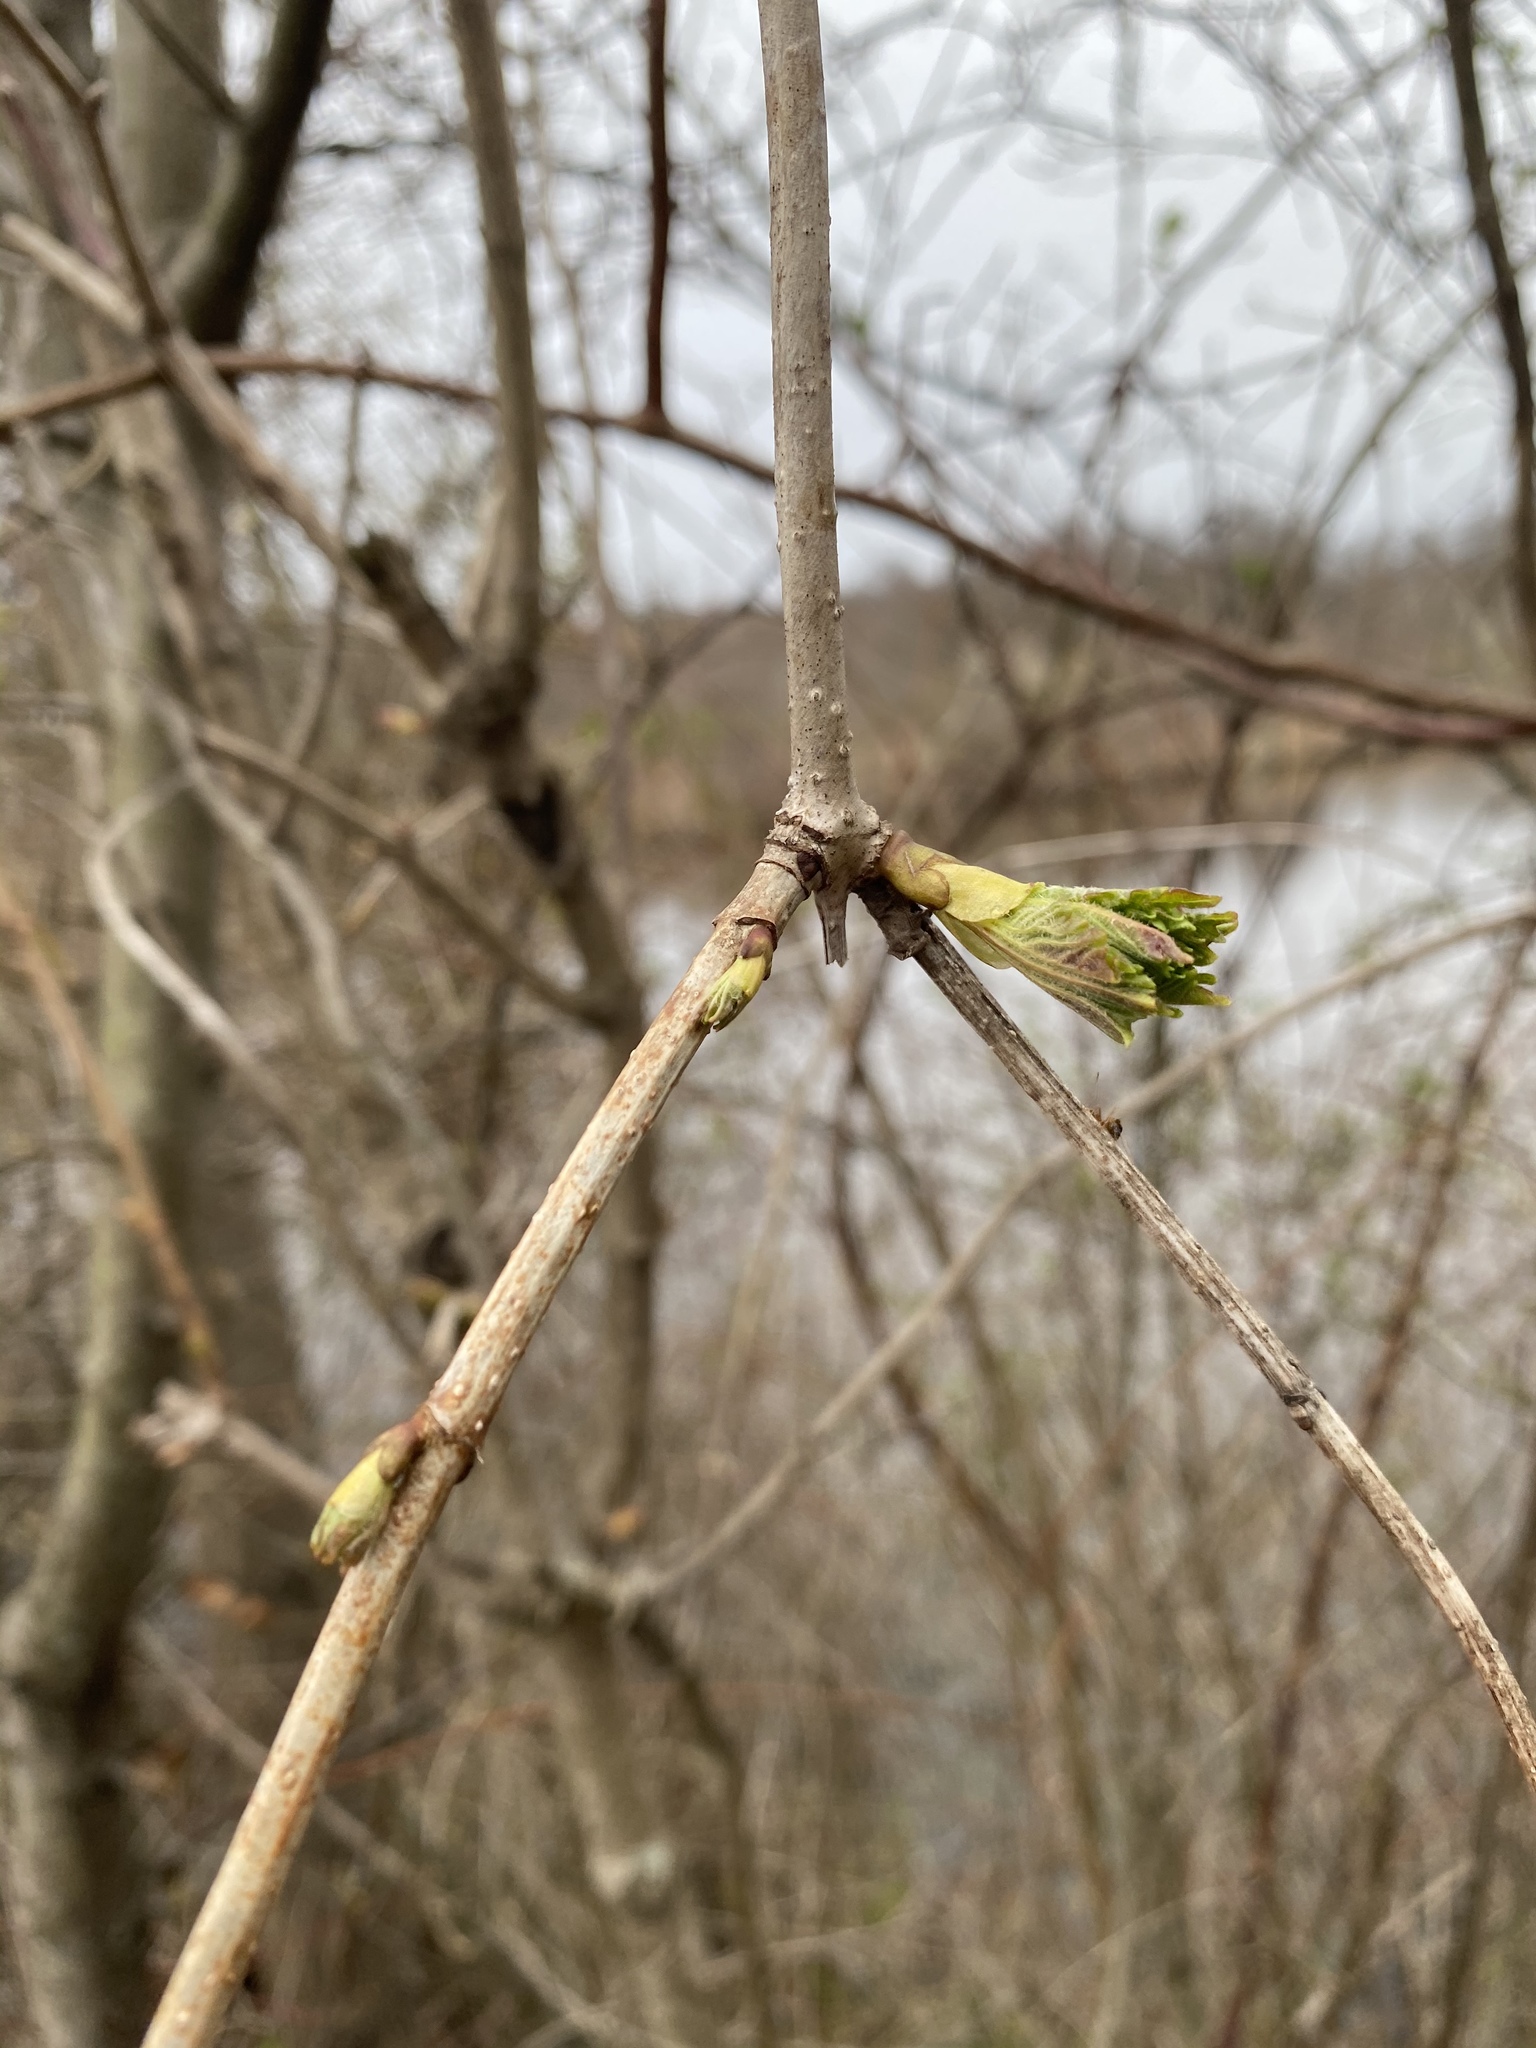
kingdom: Plantae
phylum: Tracheophyta
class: Magnoliopsida
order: Dipsacales
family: Viburnaceae
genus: Viburnum
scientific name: Viburnum opulus
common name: Guelder-rose
